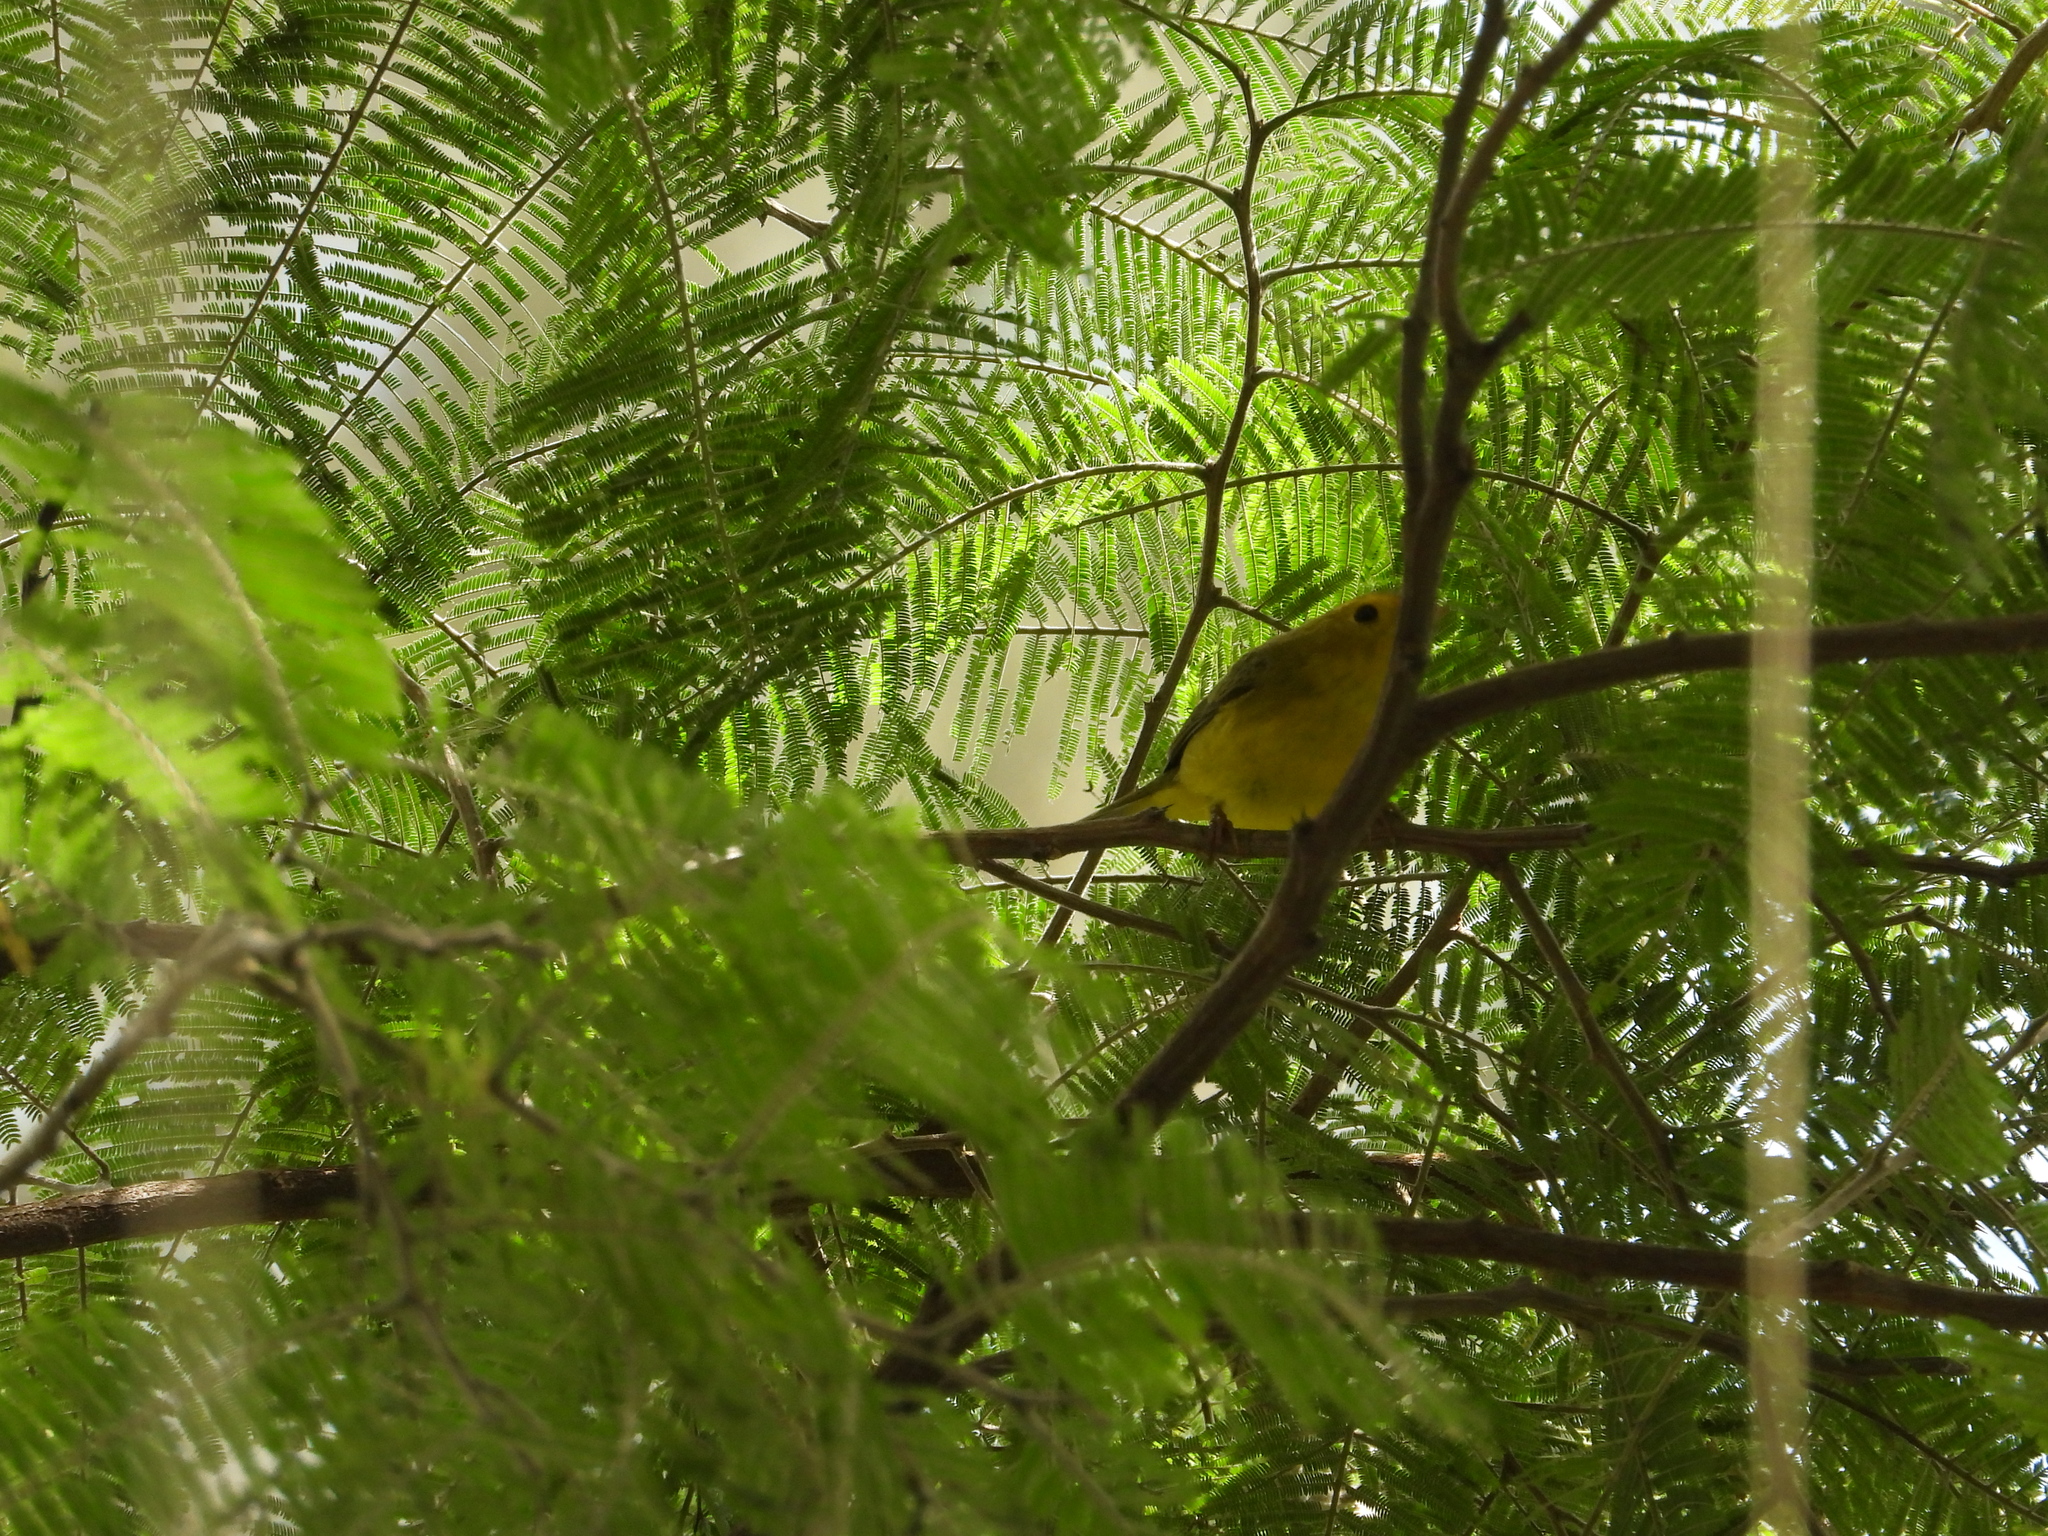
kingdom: Animalia
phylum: Chordata
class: Aves
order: Passeriformes
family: Parulidae
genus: Cardellina
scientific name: Cardellina pusilla
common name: Wilson's warbler
